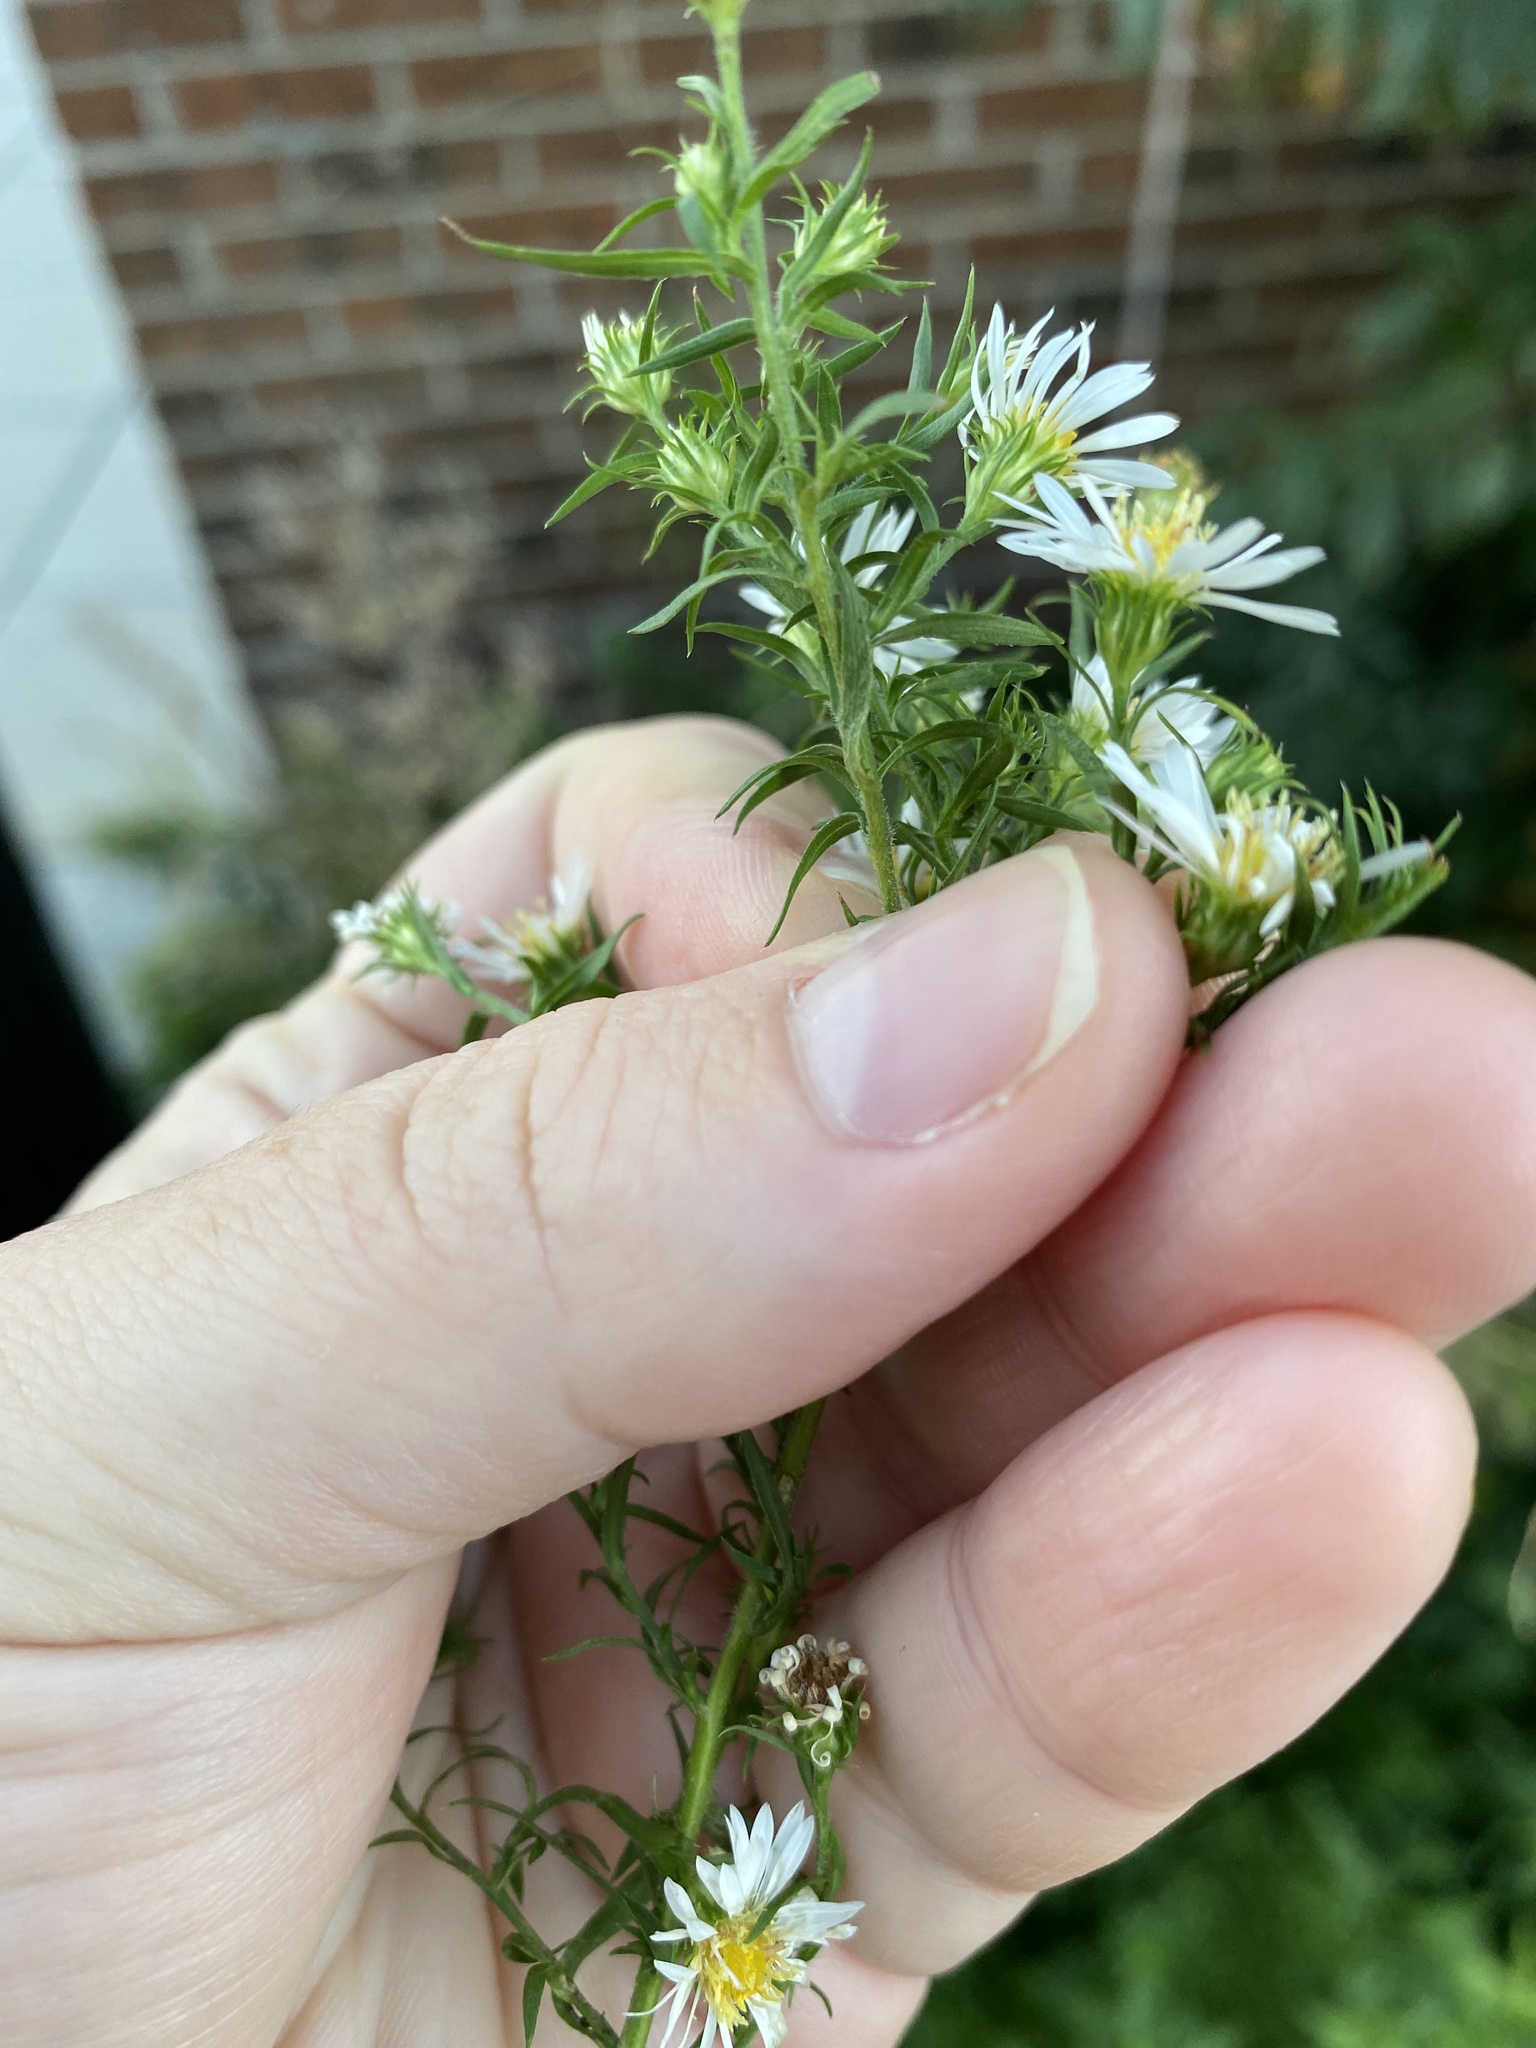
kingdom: Plantae
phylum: Tracheophyta
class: Magnoliopsida
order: Asterales
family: Asteraceae
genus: Symphyotrichum
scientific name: Symphyotrichum pilosum
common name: Awl aster
